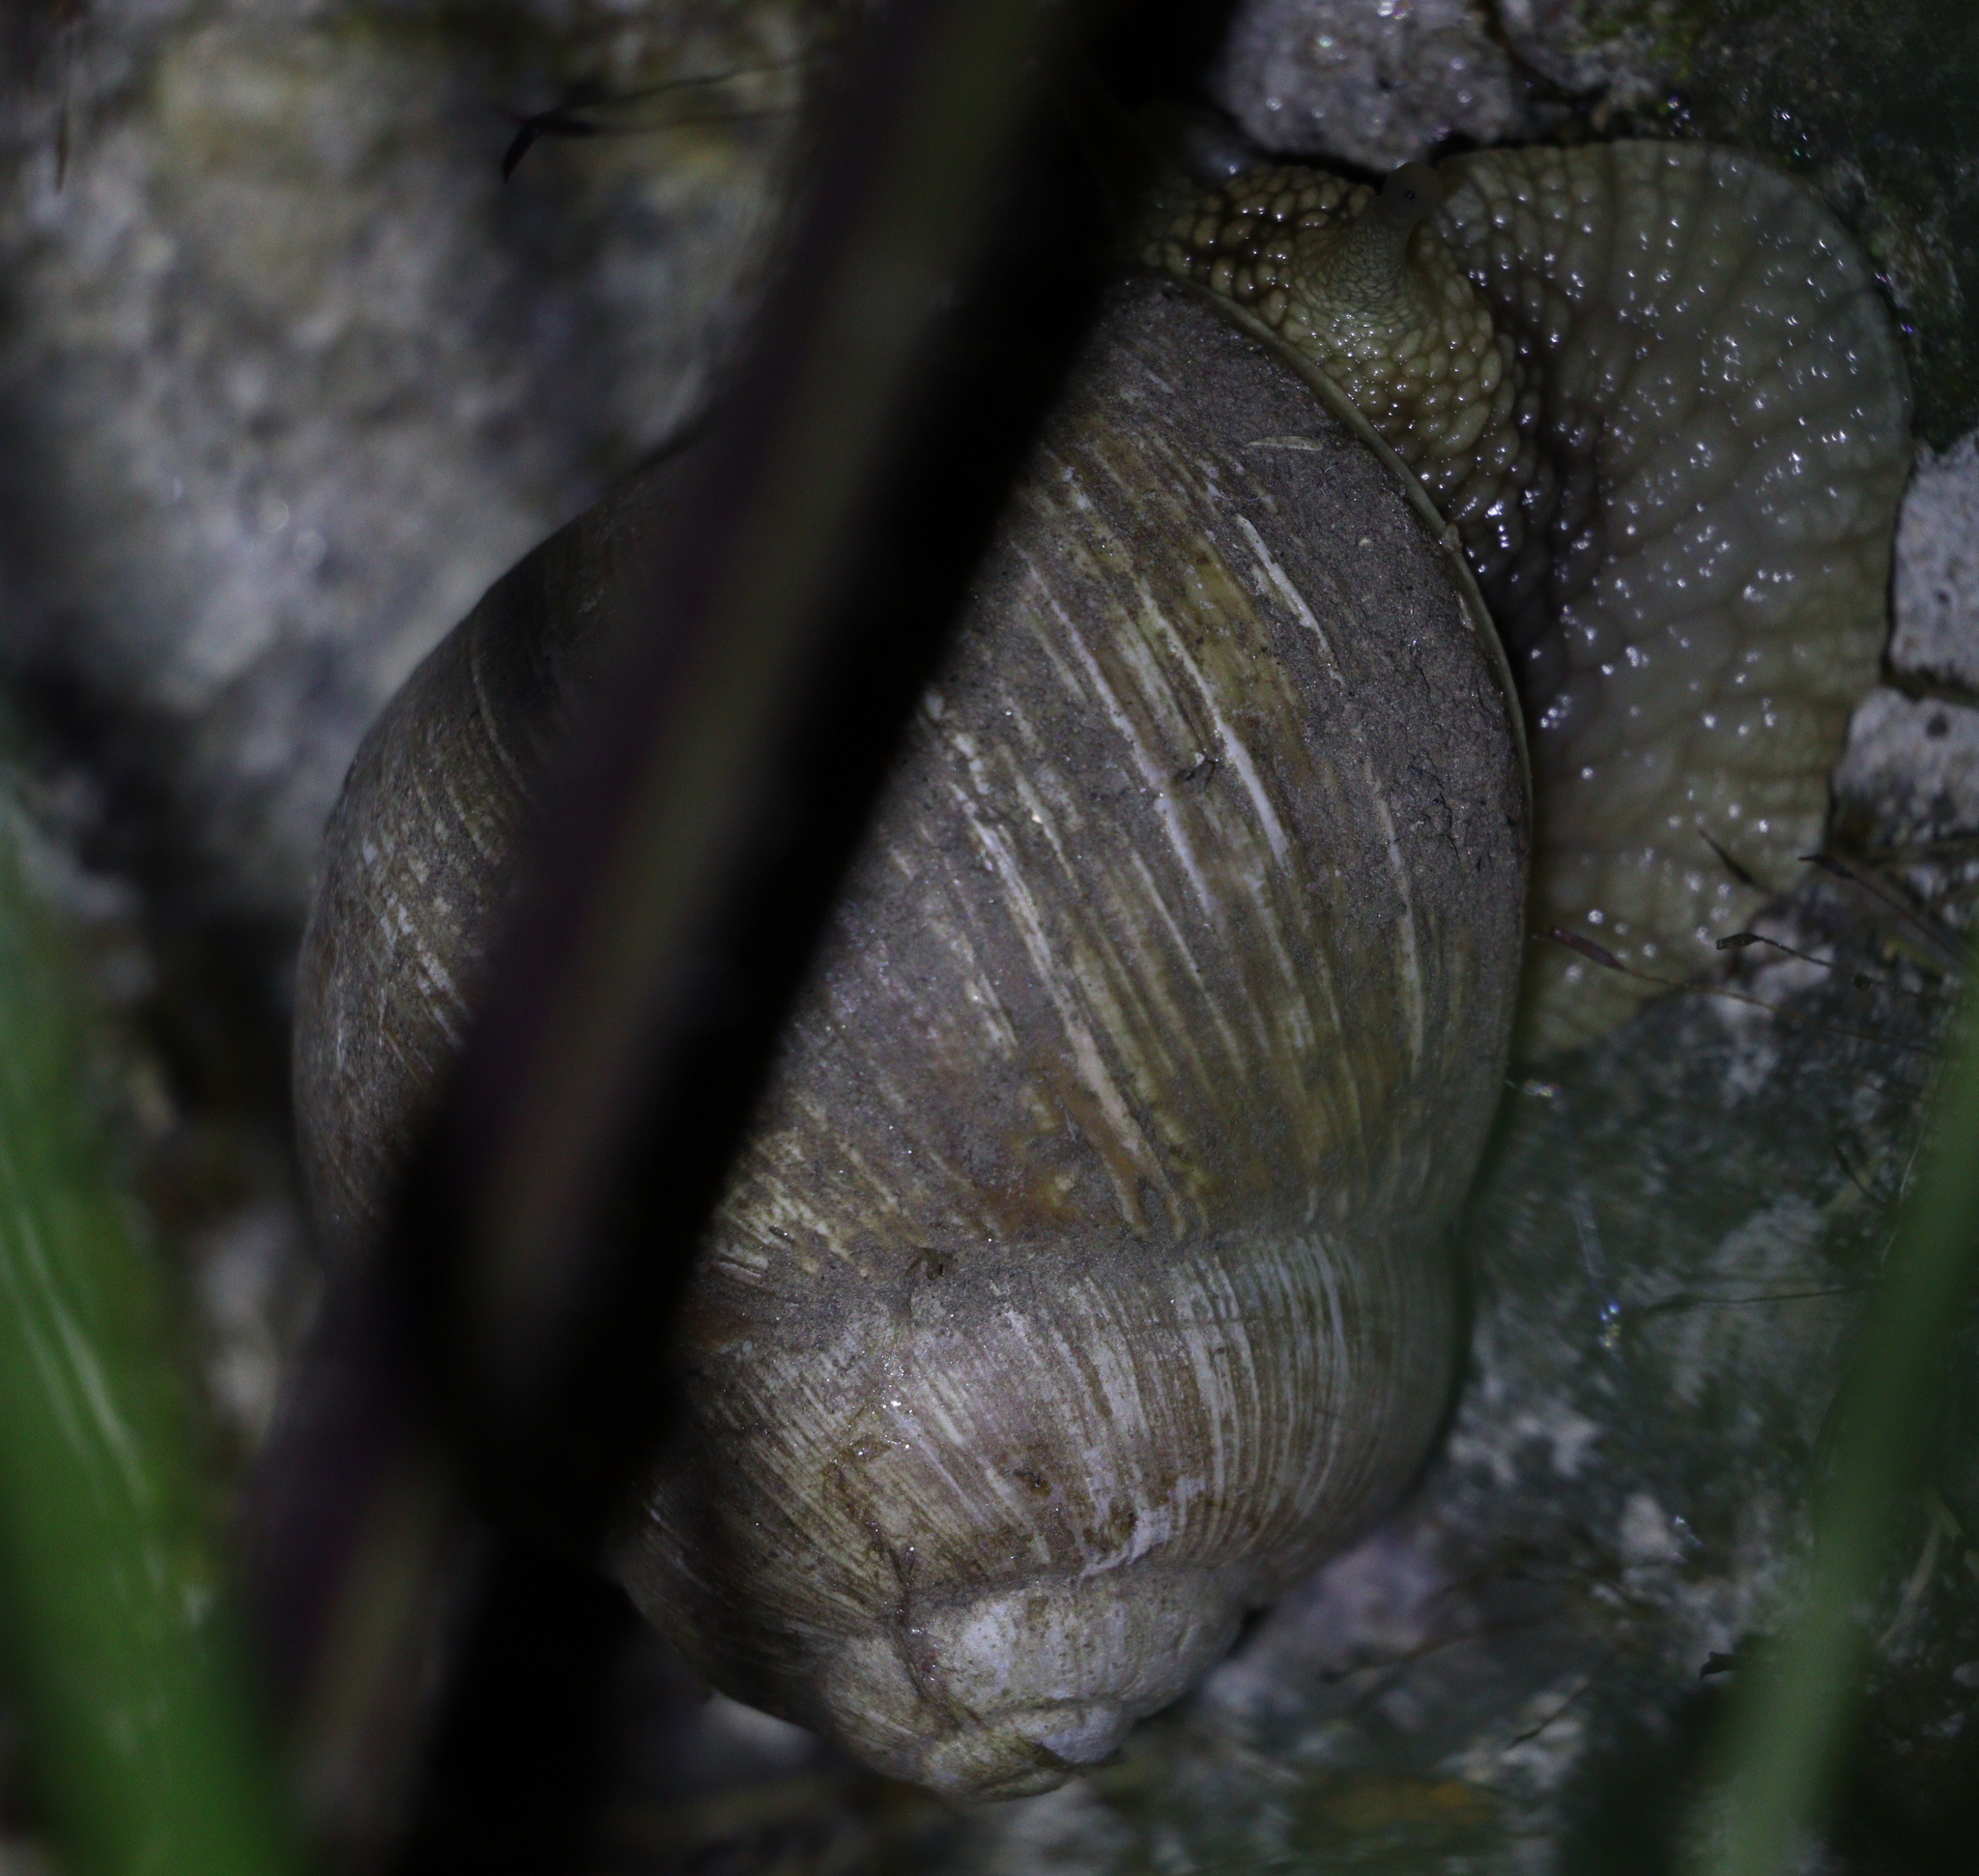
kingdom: Animalia
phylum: Mollusca
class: Gastropoda
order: Stylommatophora
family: Helicidae
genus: Helix
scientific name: Helix pomatia
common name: Roman snail
